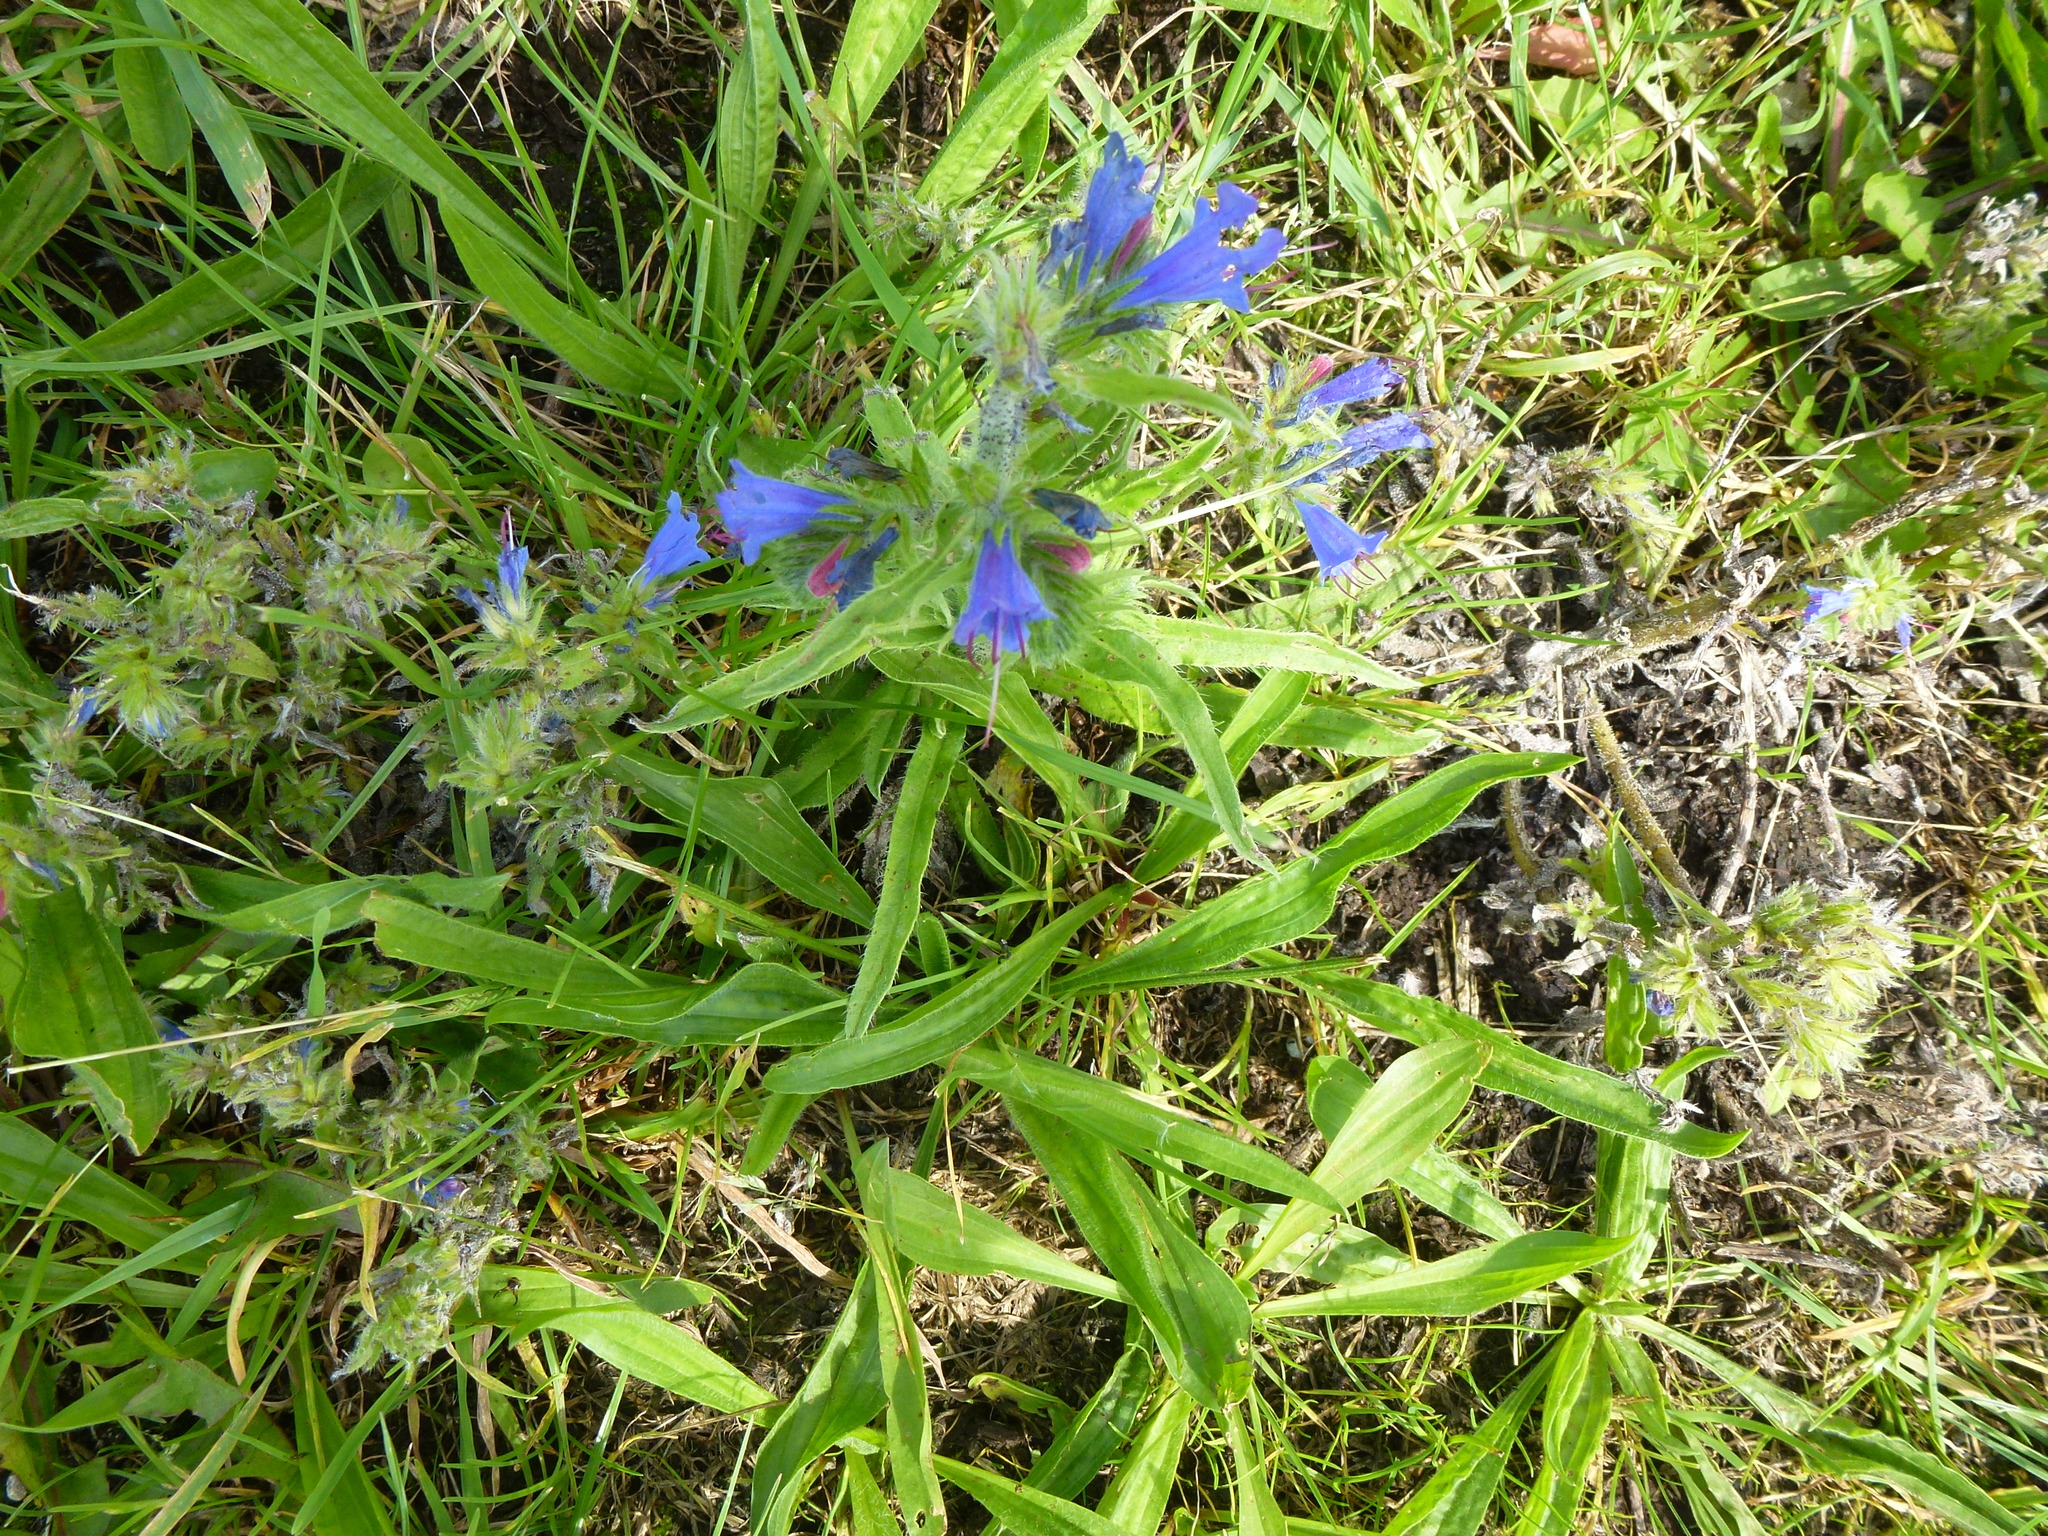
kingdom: Plantae
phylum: Tracheophyta
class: Magnoliopsida
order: Boraginales
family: Boraginaceae
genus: Echium
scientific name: Echium vulgare
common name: Common viper's bugloss
